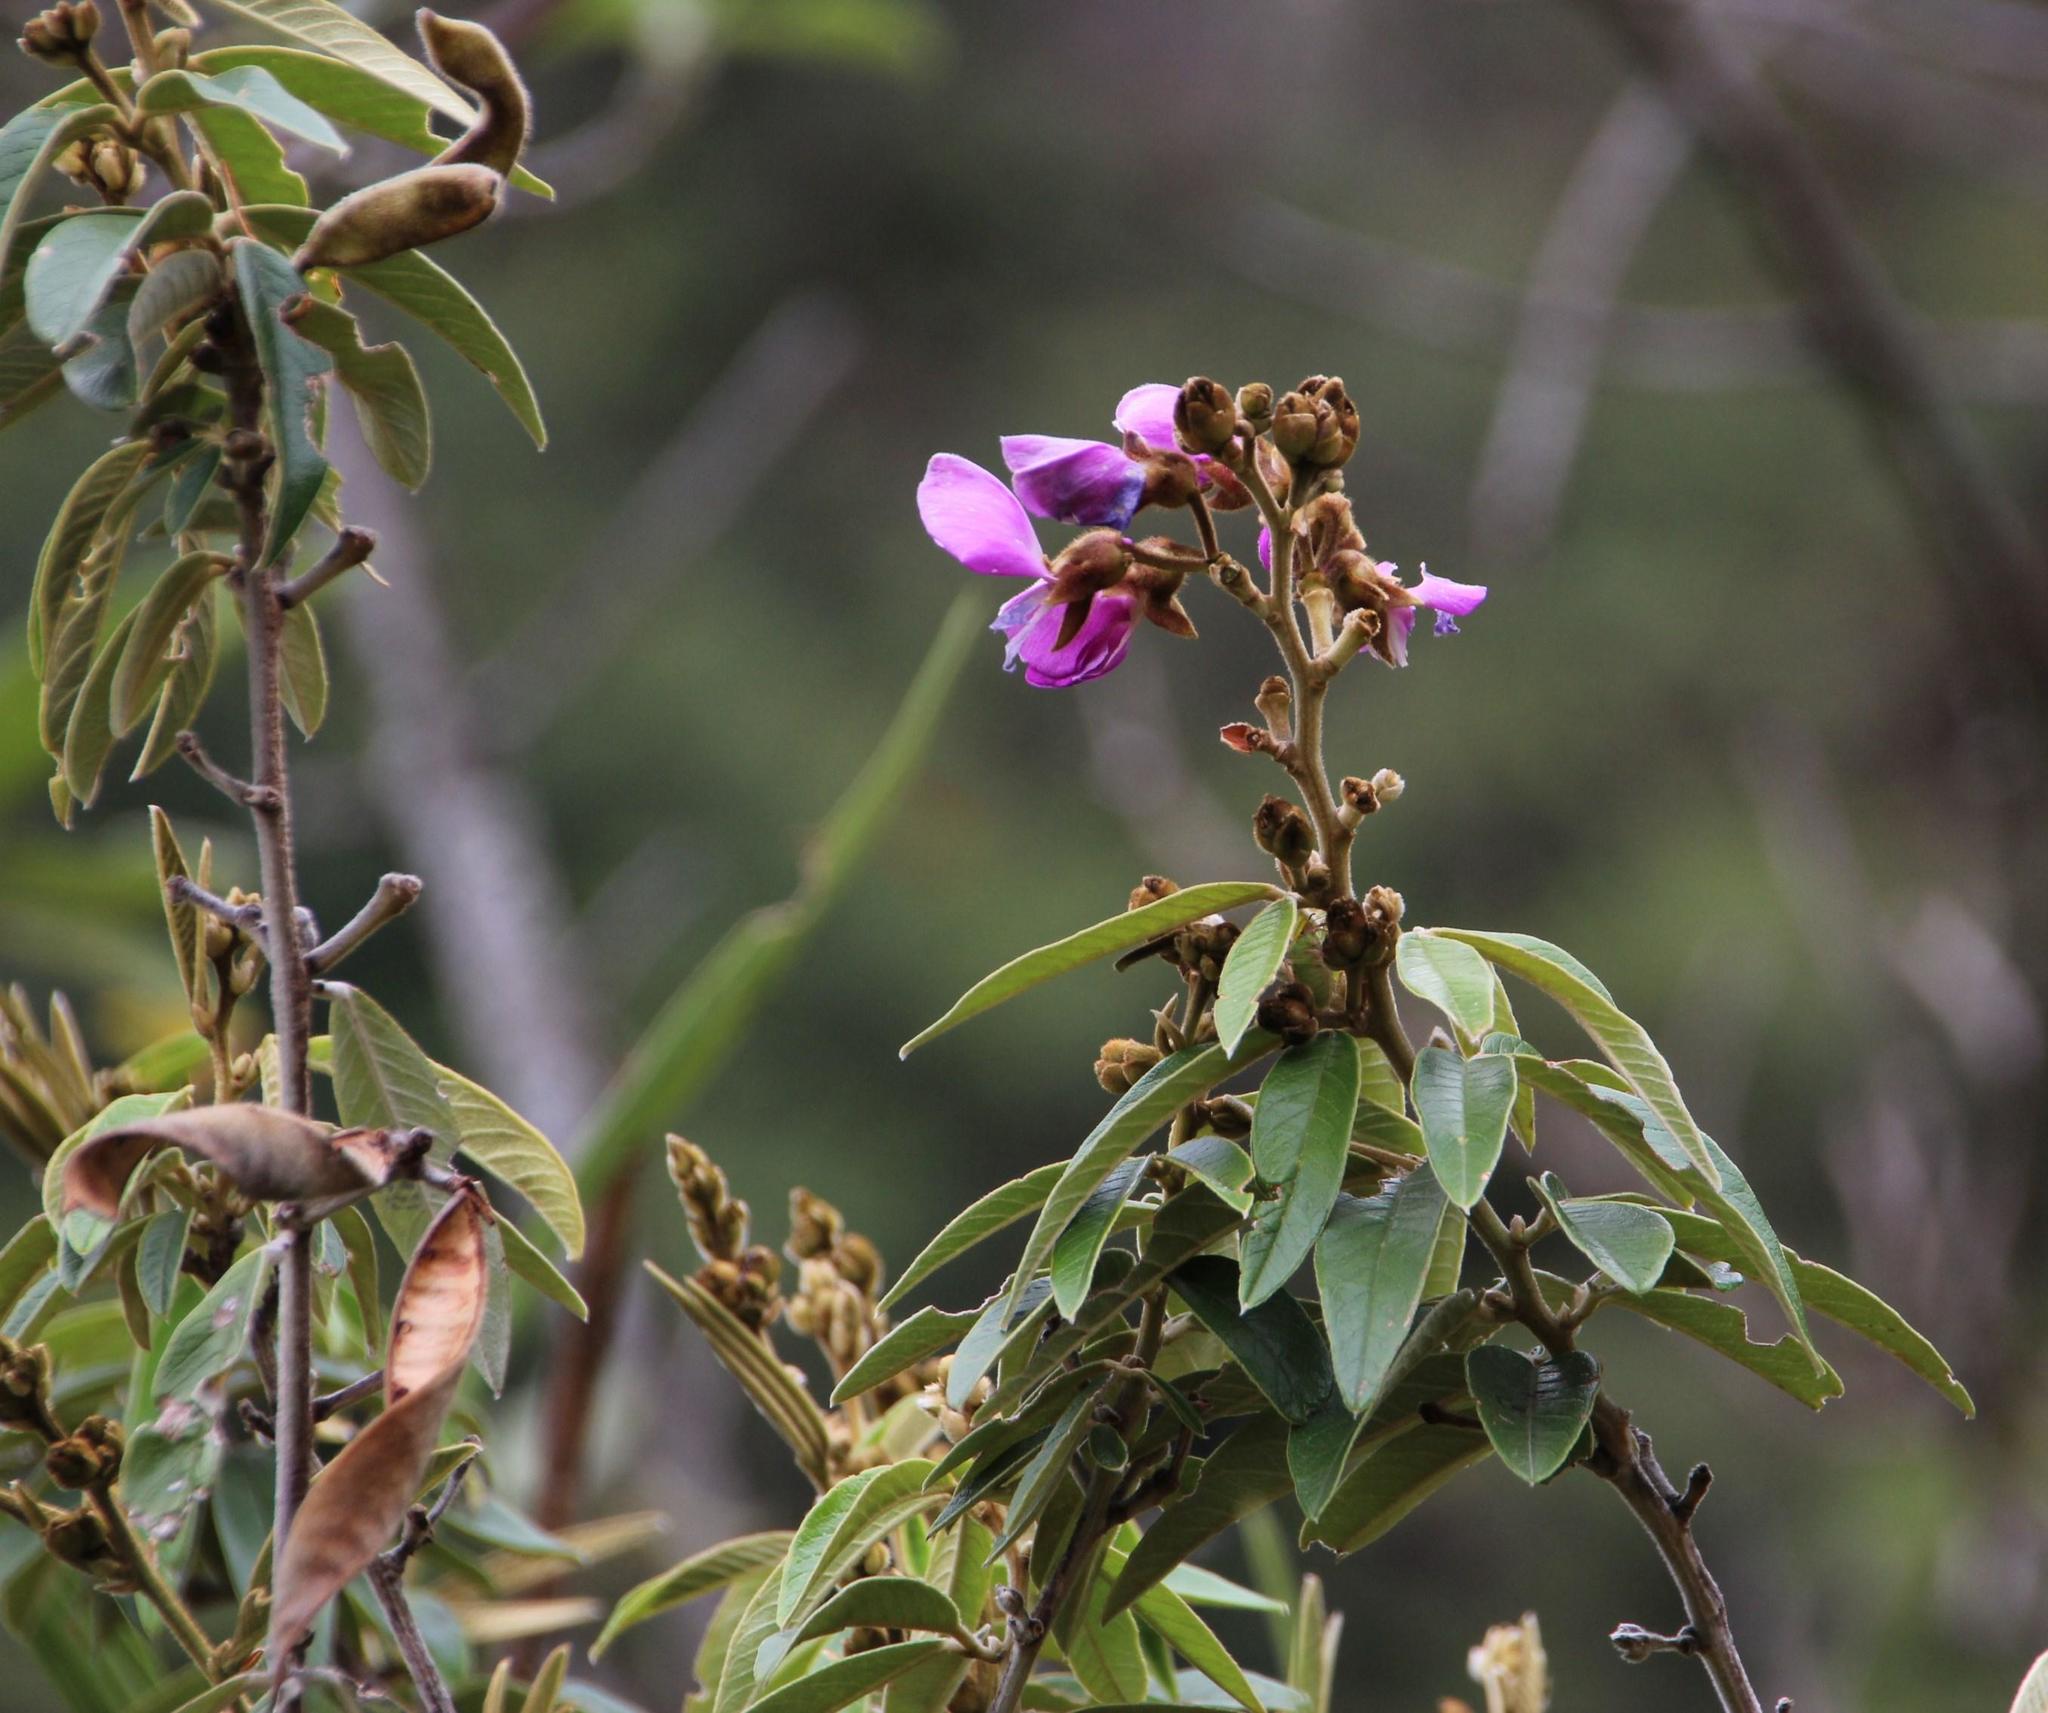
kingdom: Plantae
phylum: Tracheophyta
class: Magnoliopsida
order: Fabales
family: Fabaceae
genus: Collaea
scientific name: Collaea speciosa
